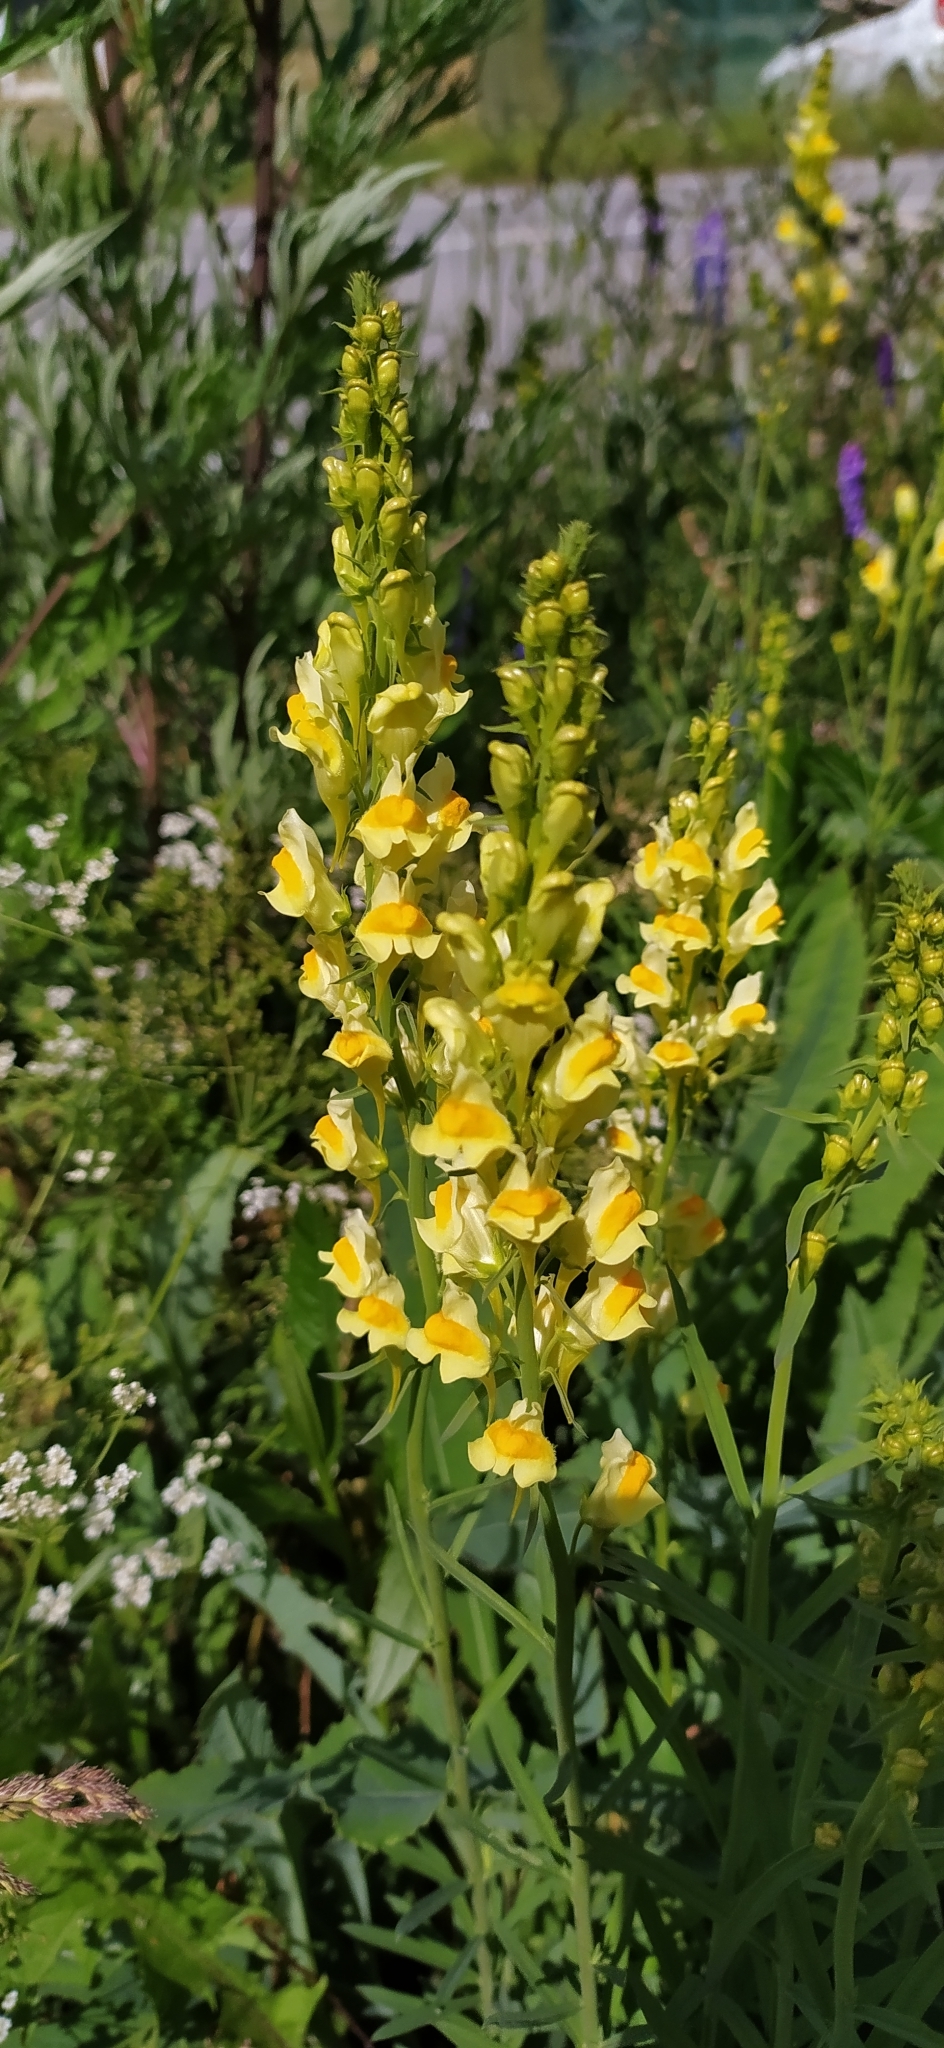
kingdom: Plantae
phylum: Tracheophyta
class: Magnoliopsida
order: Lamiales
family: Plantaginaceae
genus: Linaria
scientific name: Linaria vulgaris
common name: Butter and eggs
